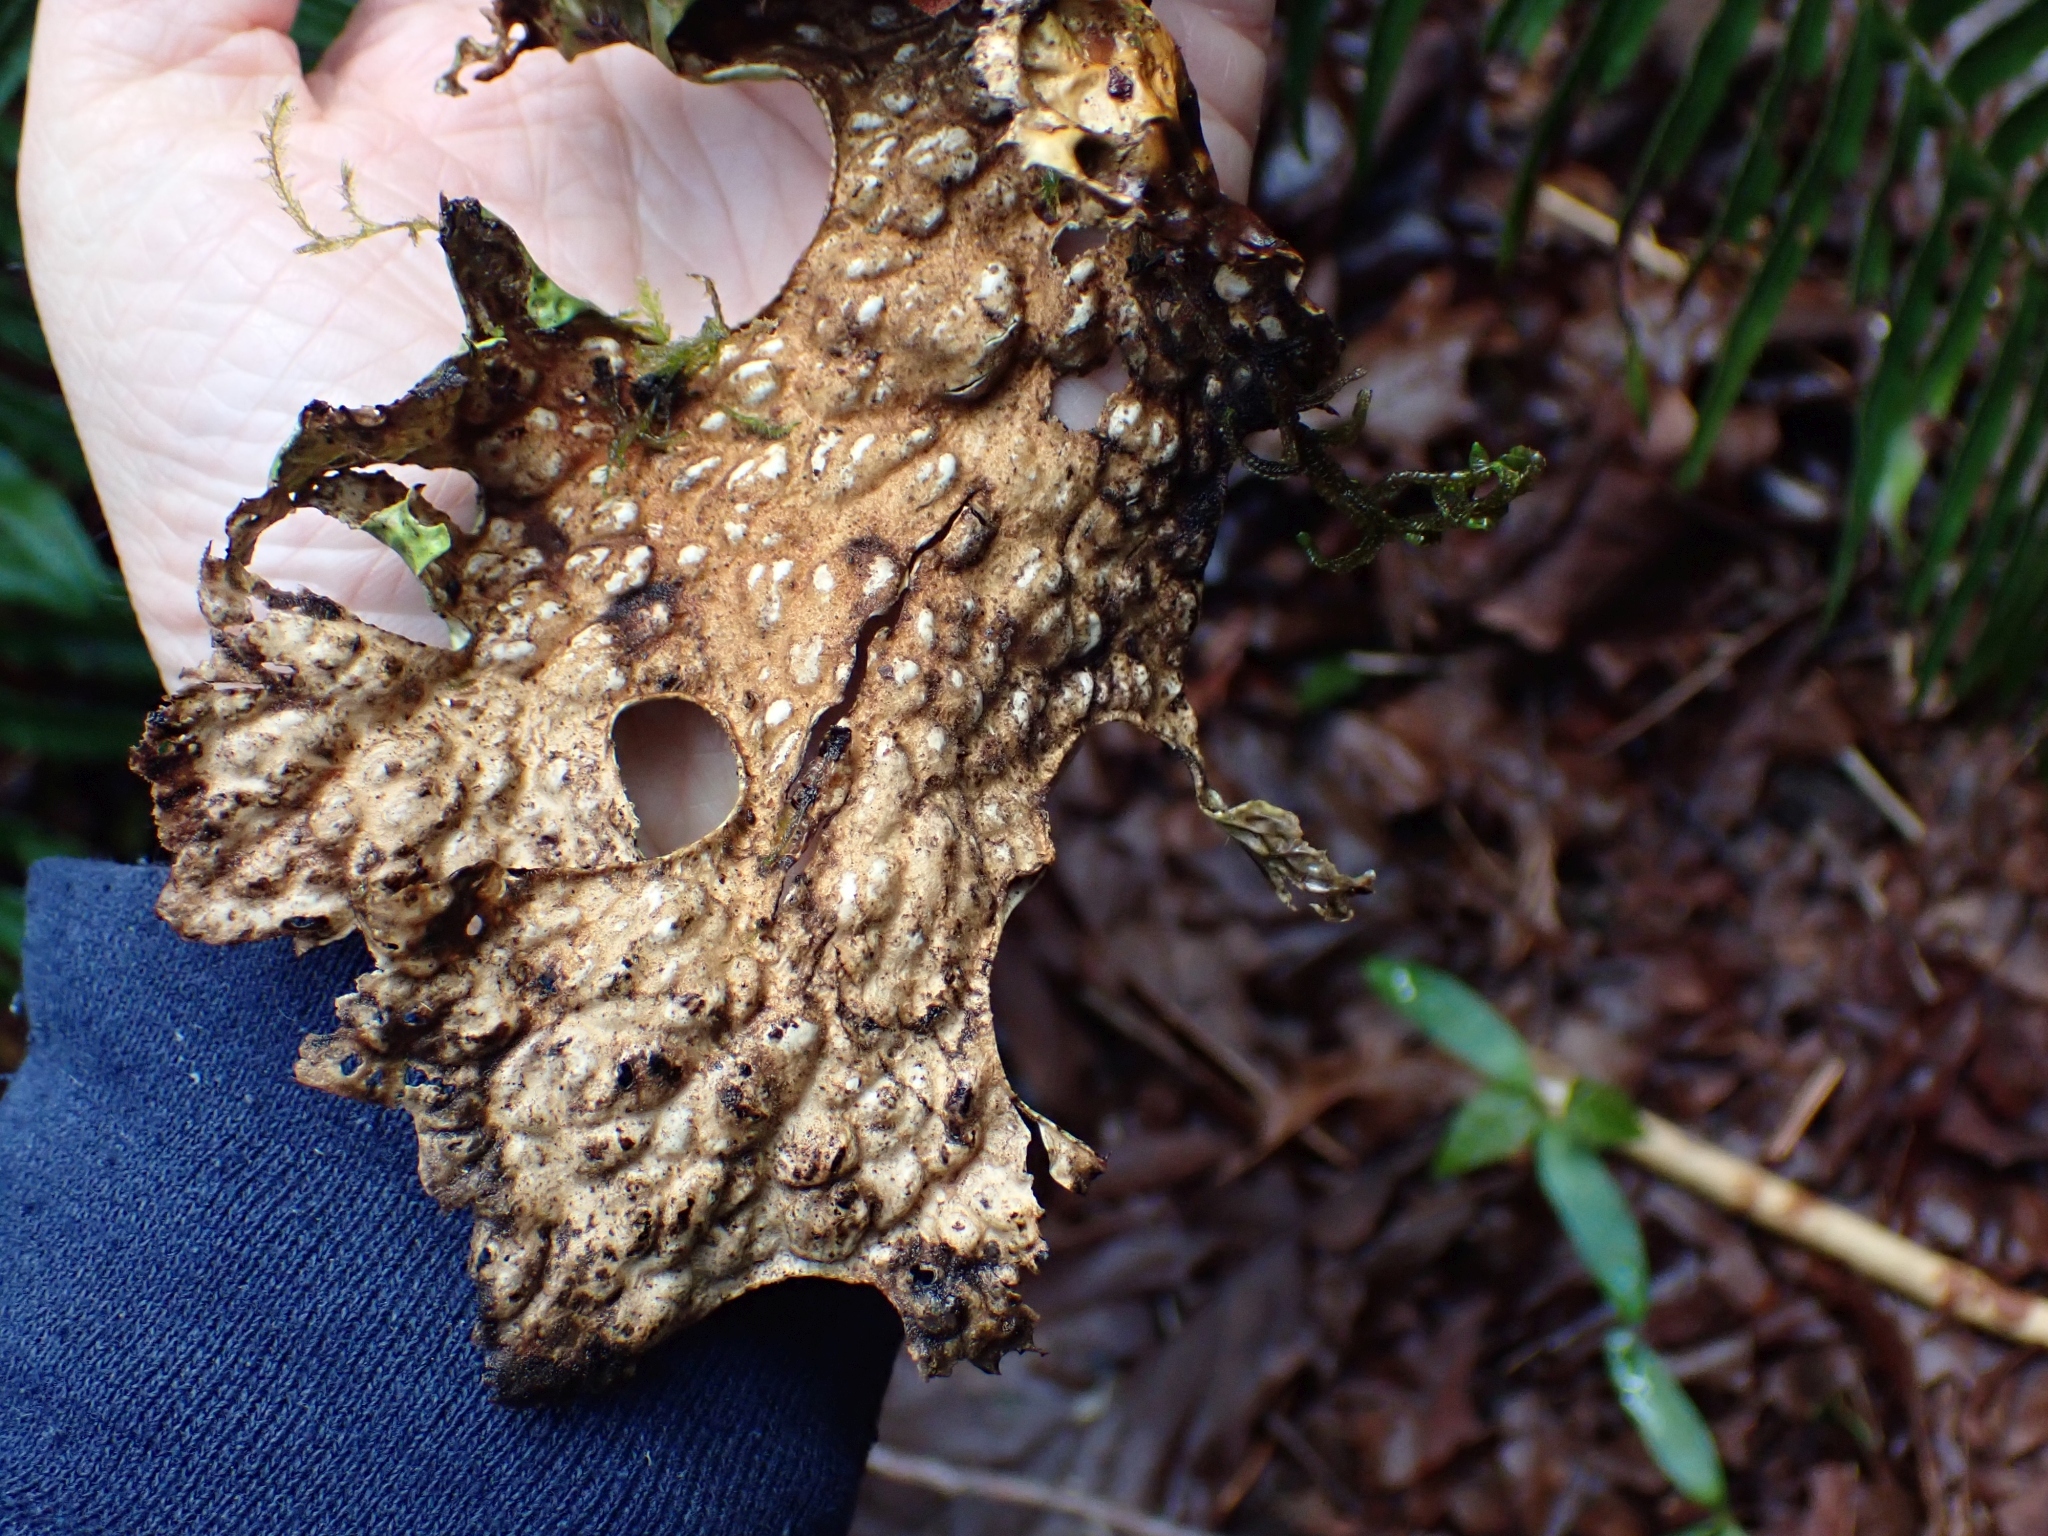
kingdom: Fungi
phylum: Ascomycota
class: Lecanoromycetes
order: Peltigerales
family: Lobariaceae
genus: Lobaria
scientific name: Lobaria pulmonaria
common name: Lungwort
